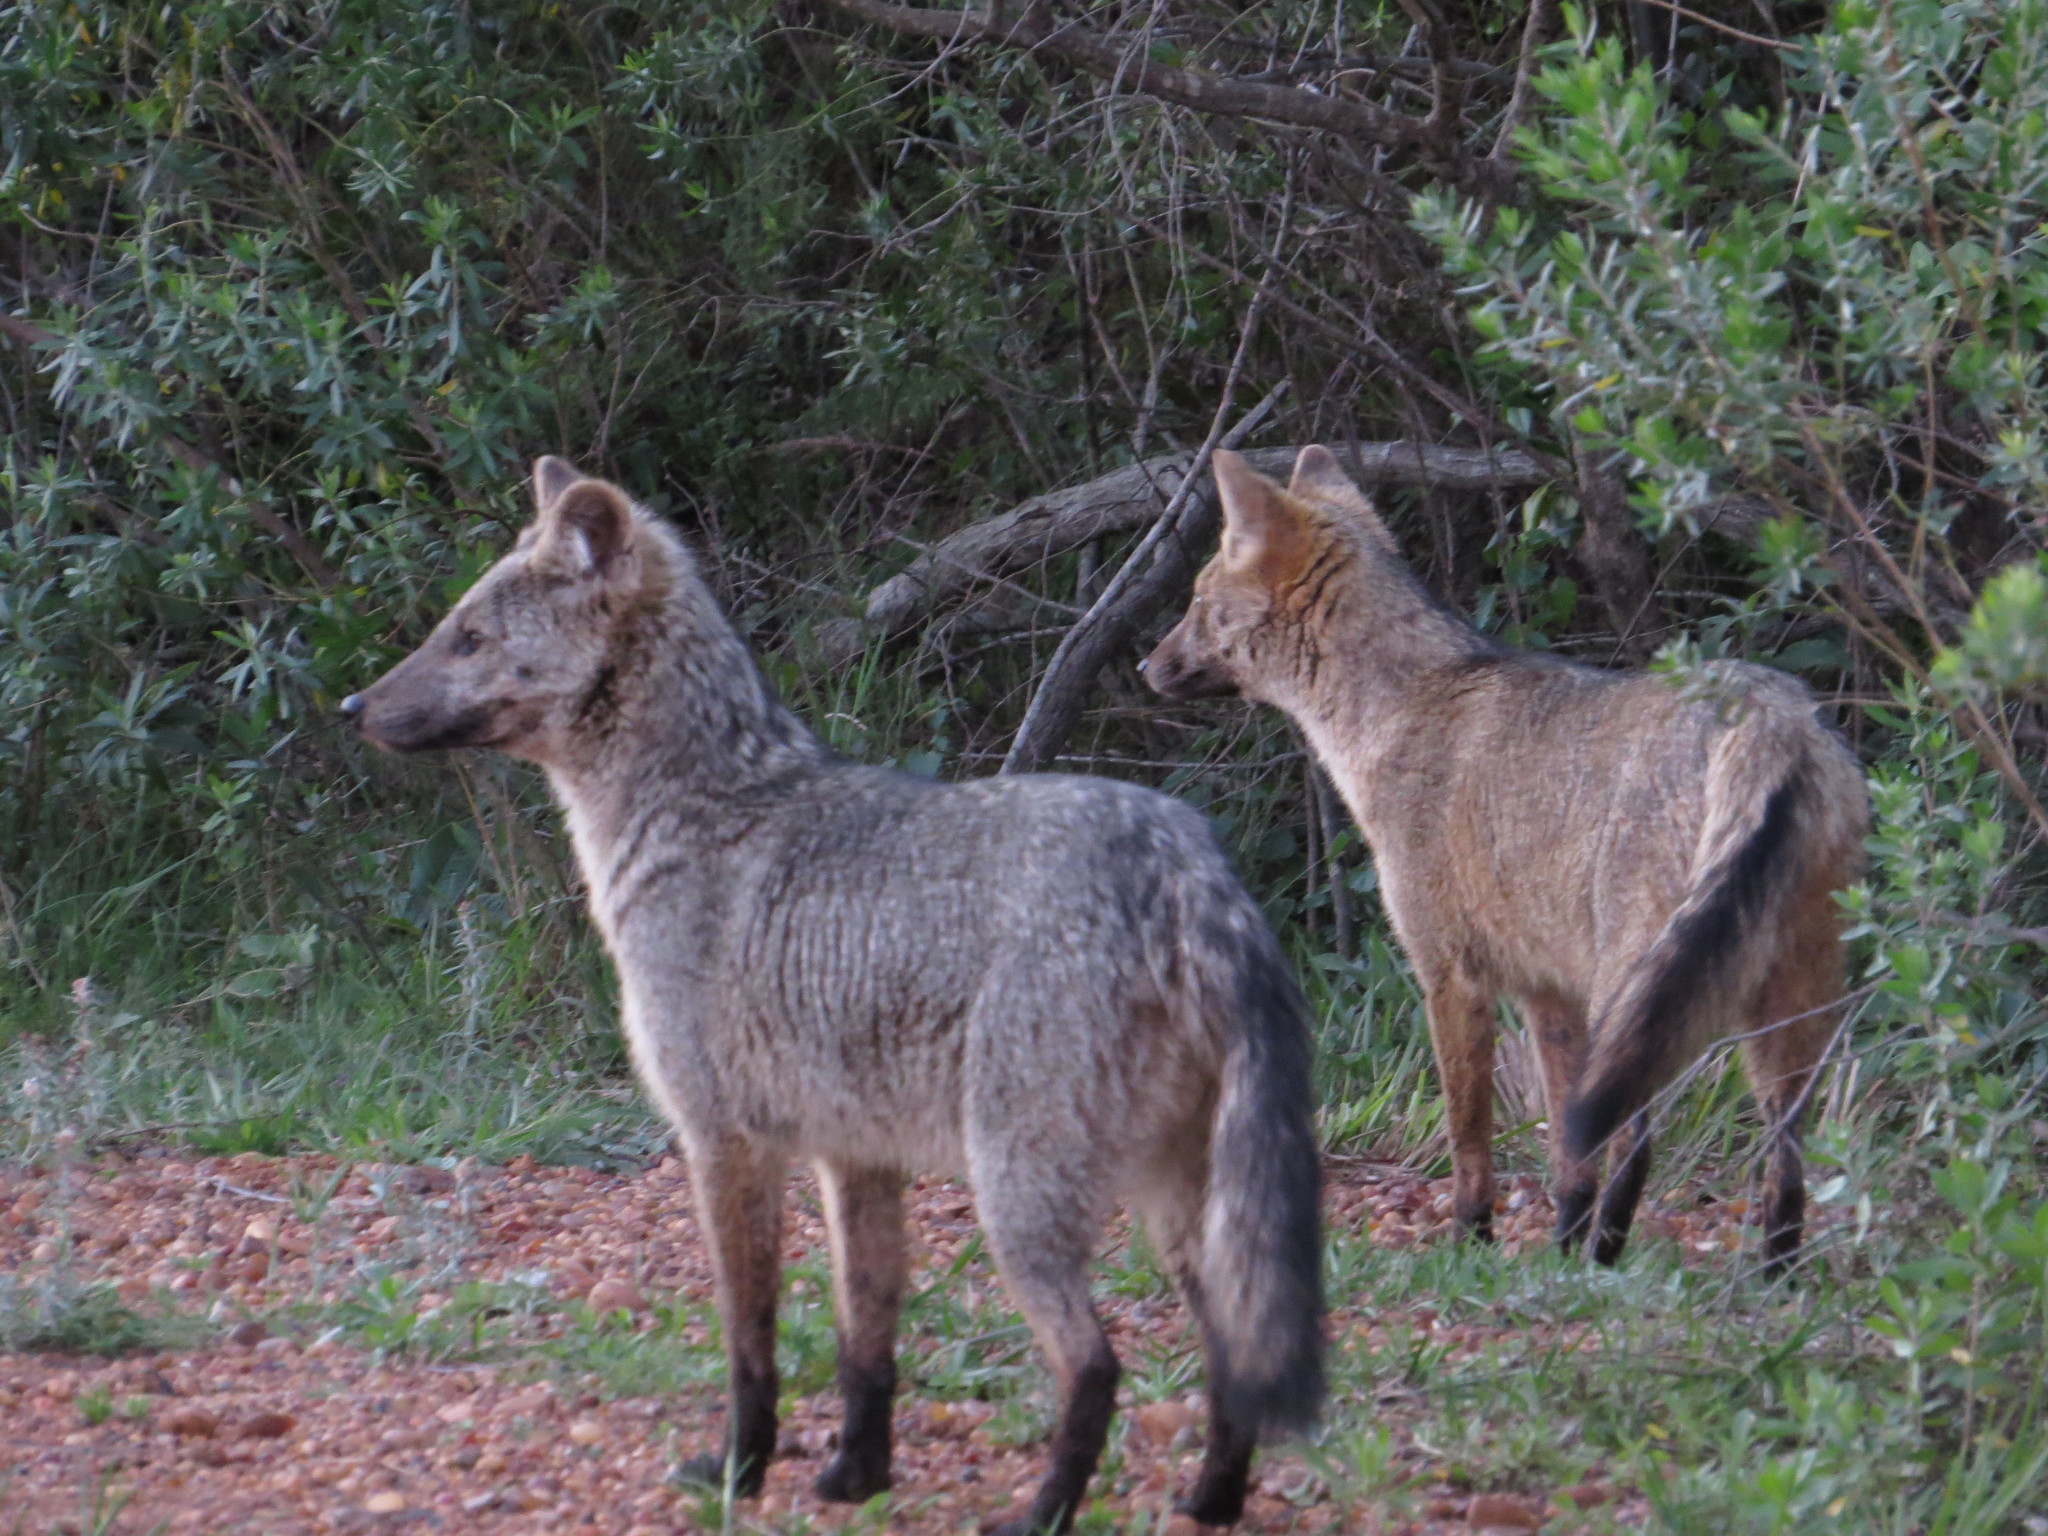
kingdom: Animalia
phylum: Chordata
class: Mammalia
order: Carnivora
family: Canidae
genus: Cerdocyon
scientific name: Cerdocyon thous
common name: Crab-eating fox
